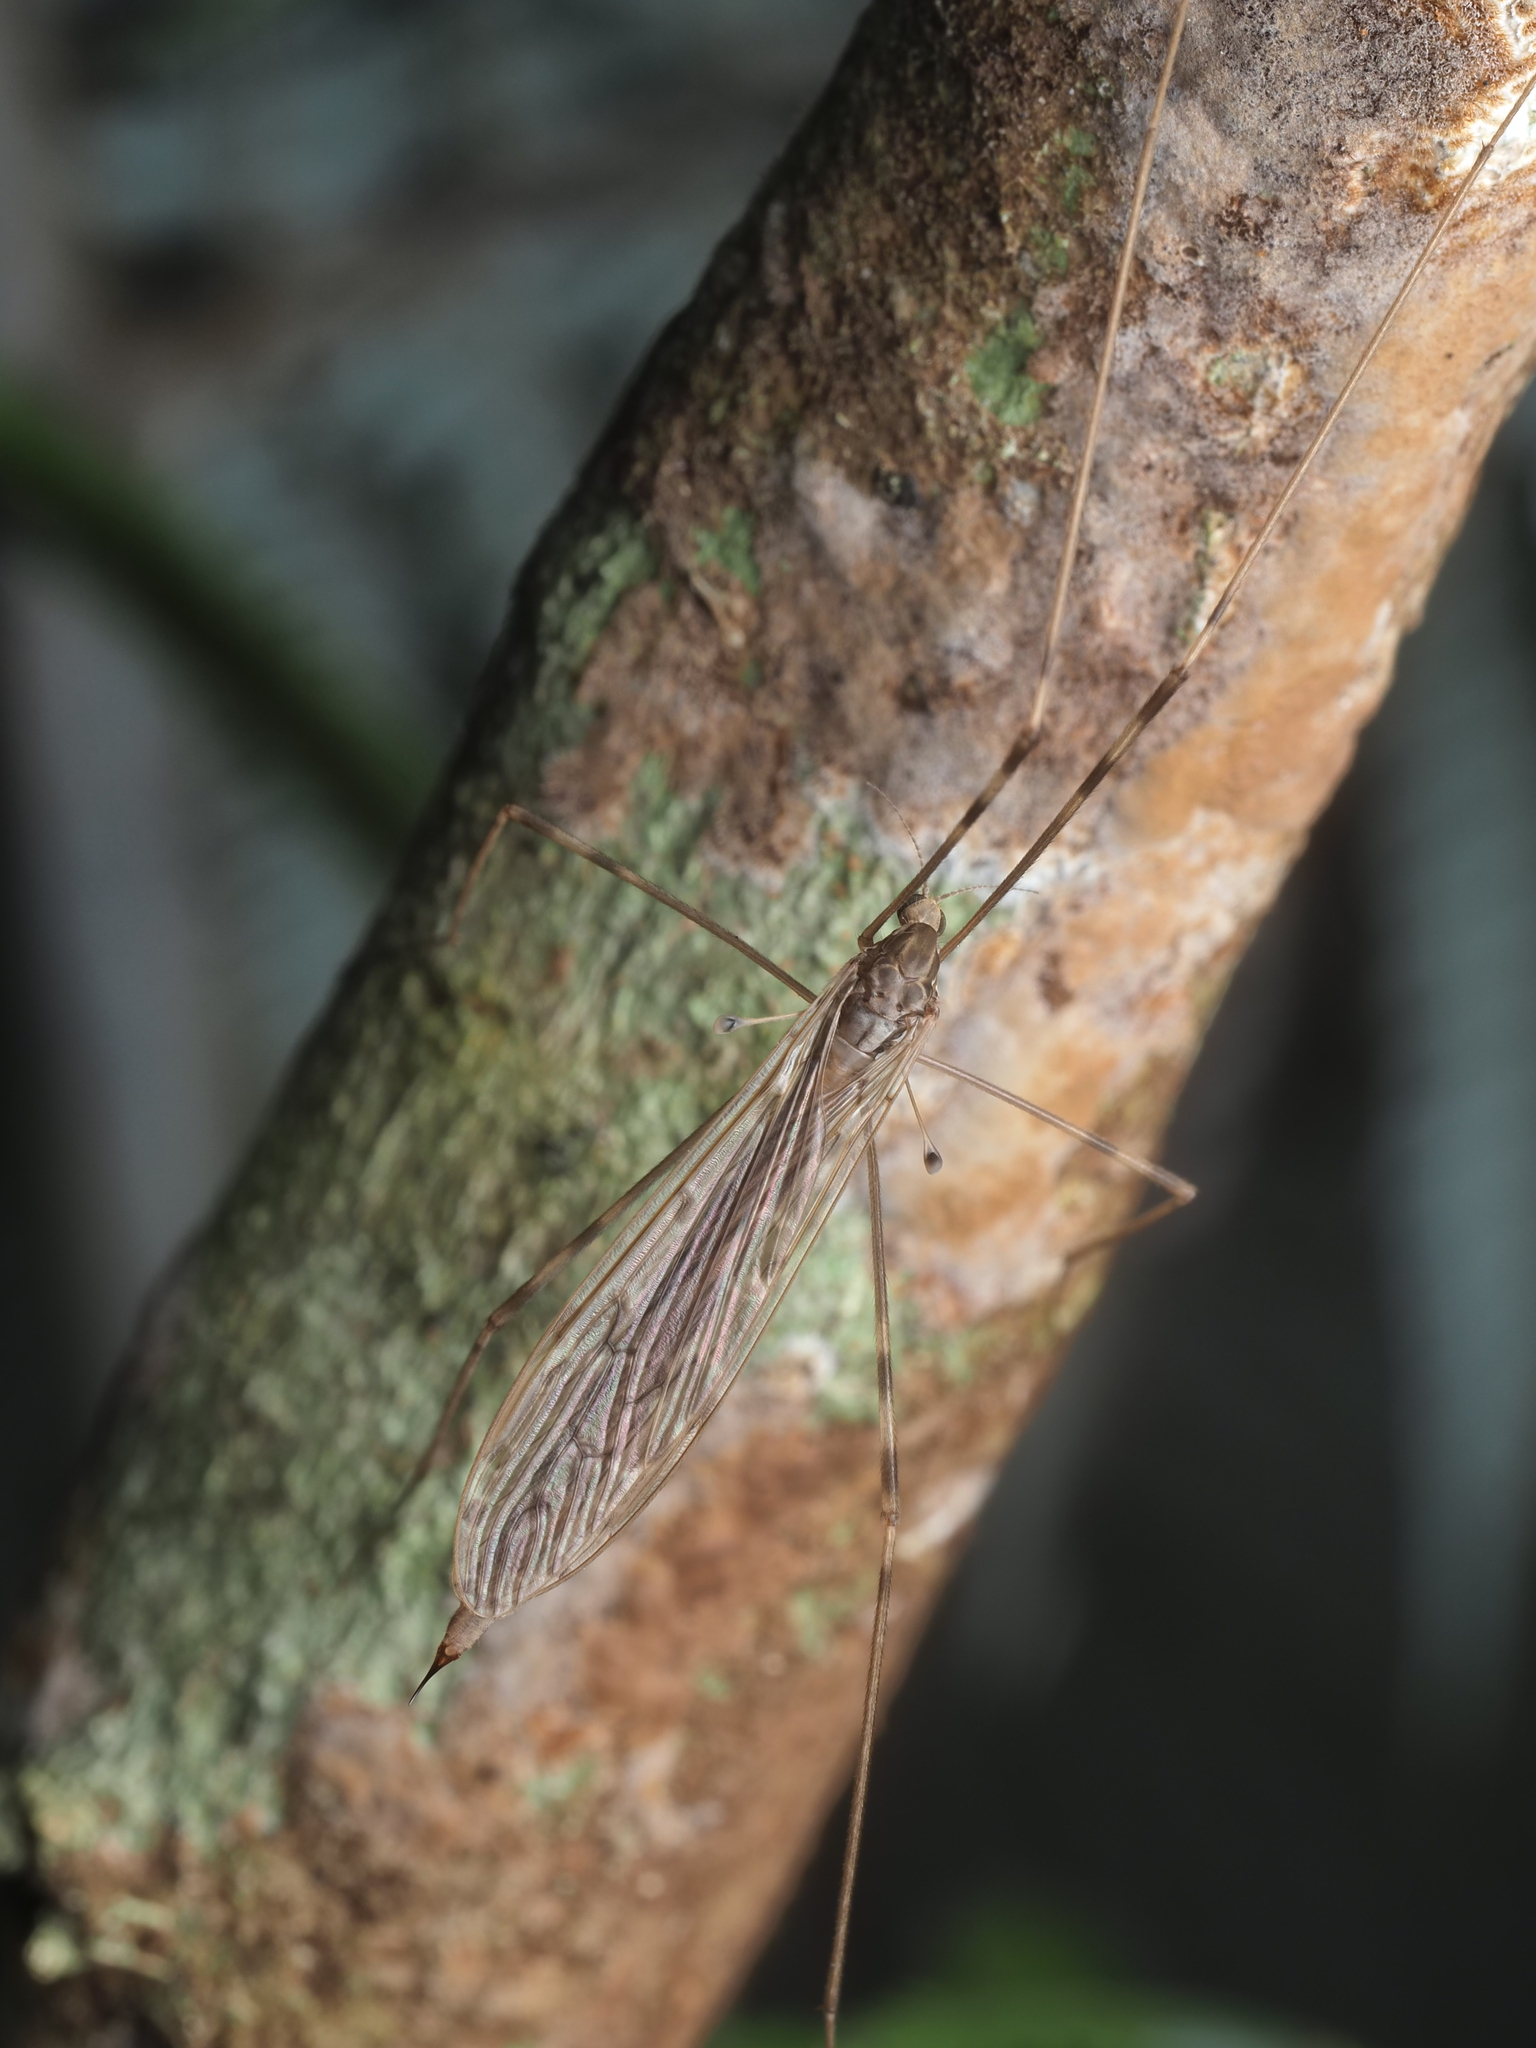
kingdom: Animalia
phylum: Arthropoda
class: Insecta
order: Diptera
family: Limoniidae
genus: Austrolimnophila
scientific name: Austrolimnophila crassipes
